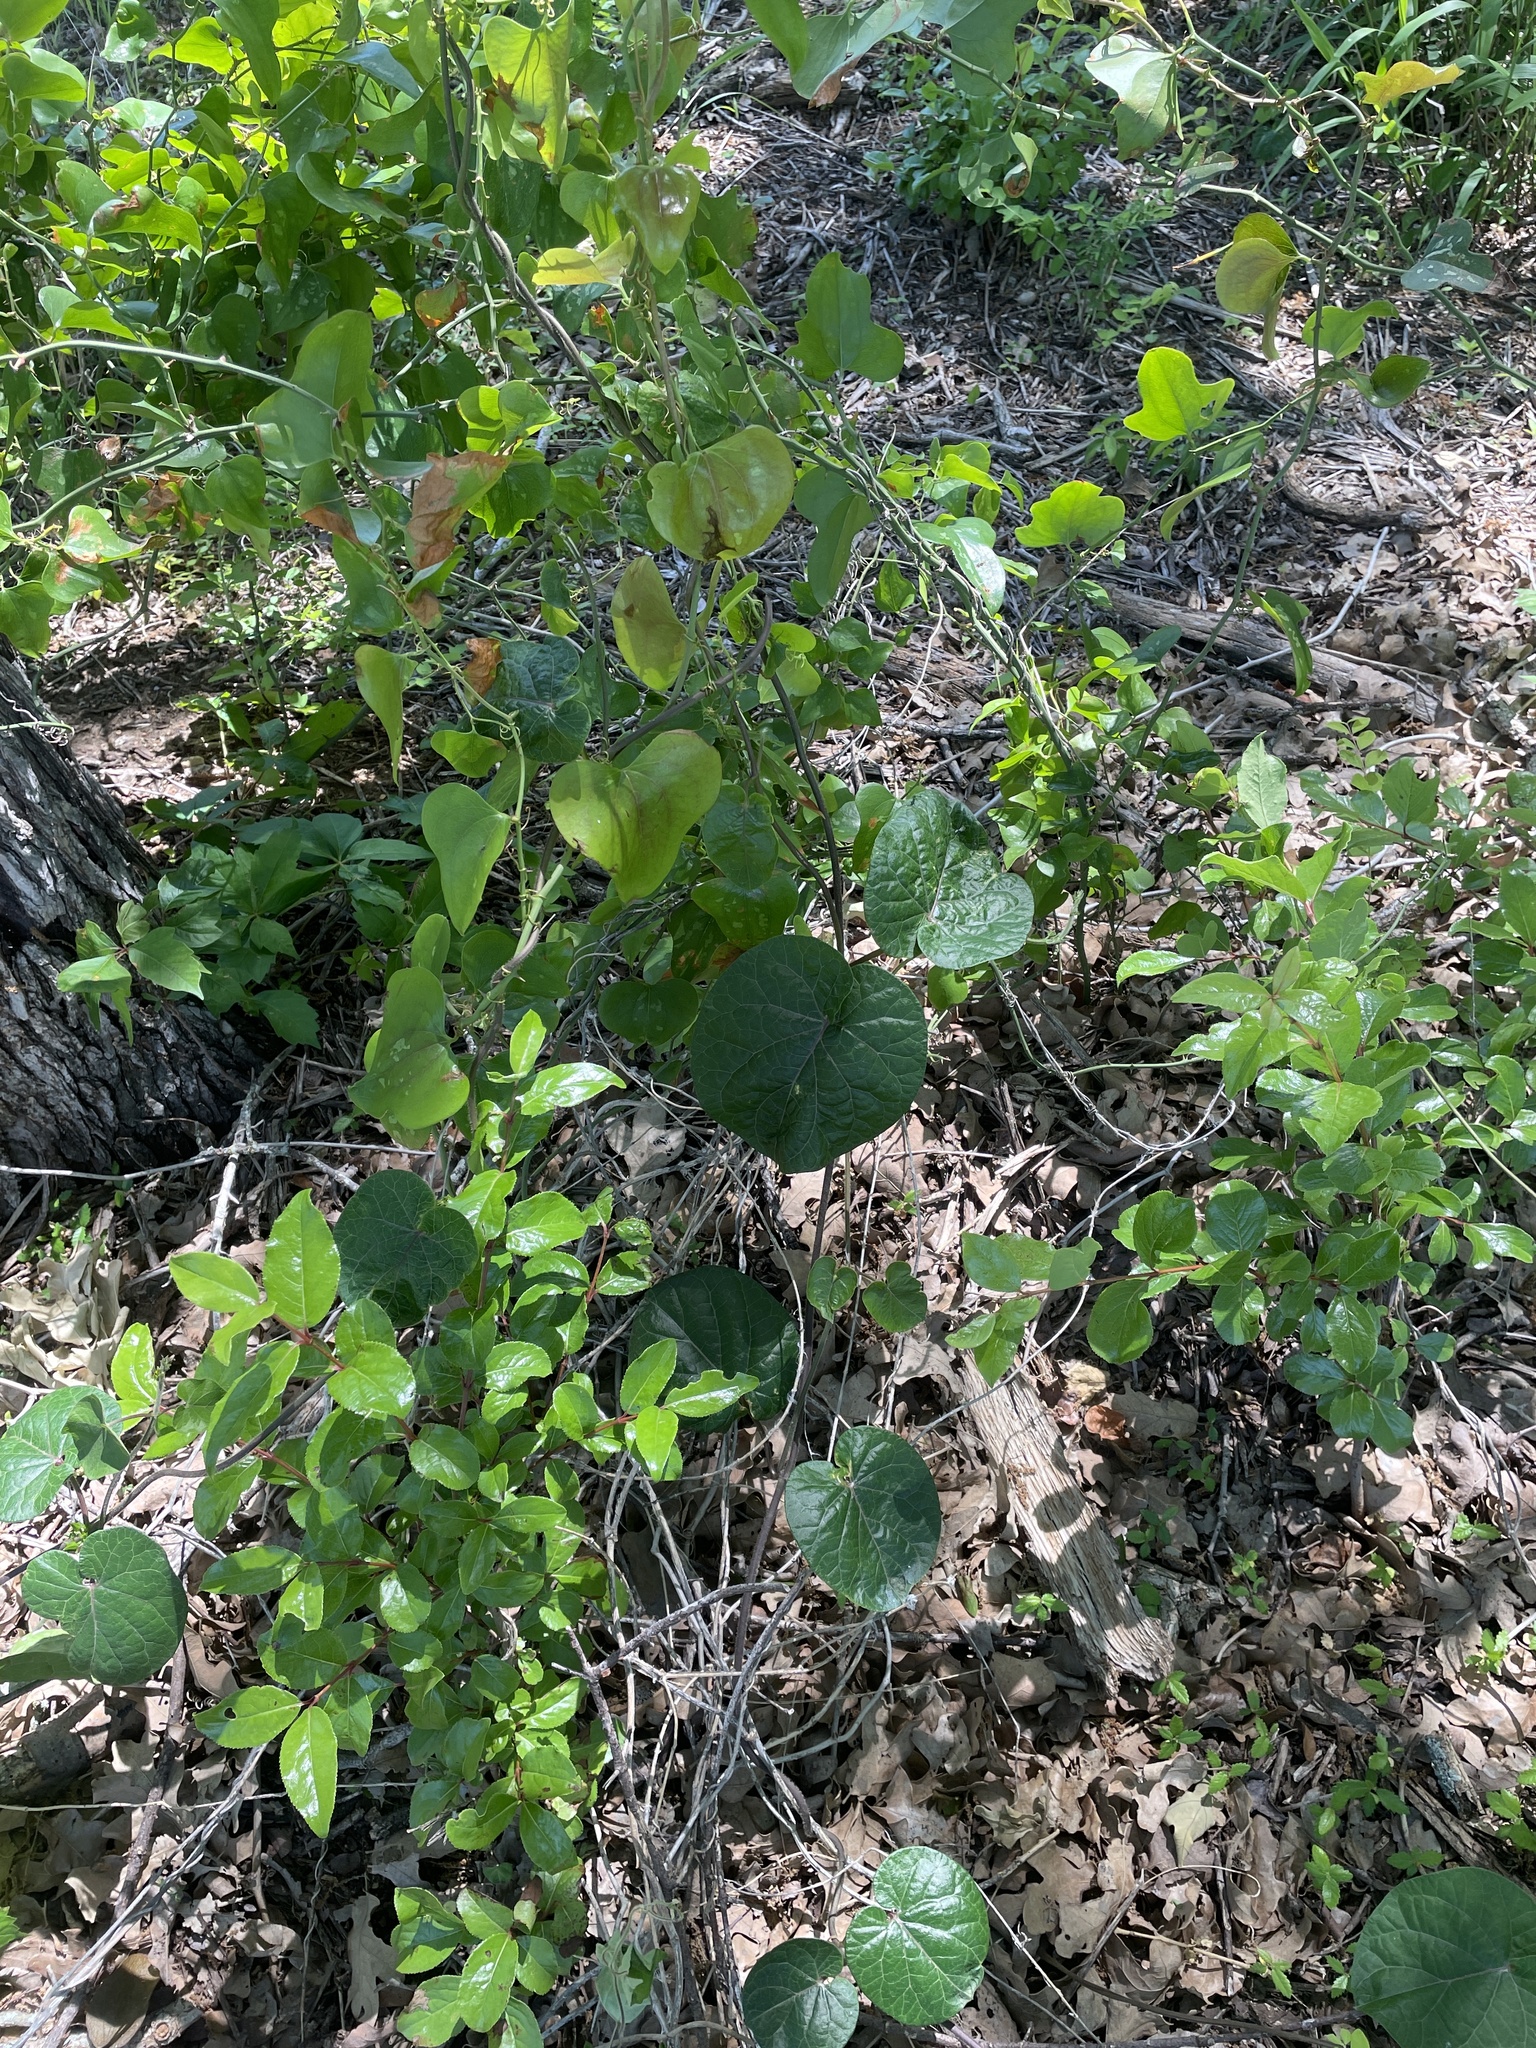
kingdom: Plantae
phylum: Tracheophyta
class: Magnoliopsida
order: Gentianales
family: Apocynaceae
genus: Gonolobus
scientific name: Gonolobus suberosus
